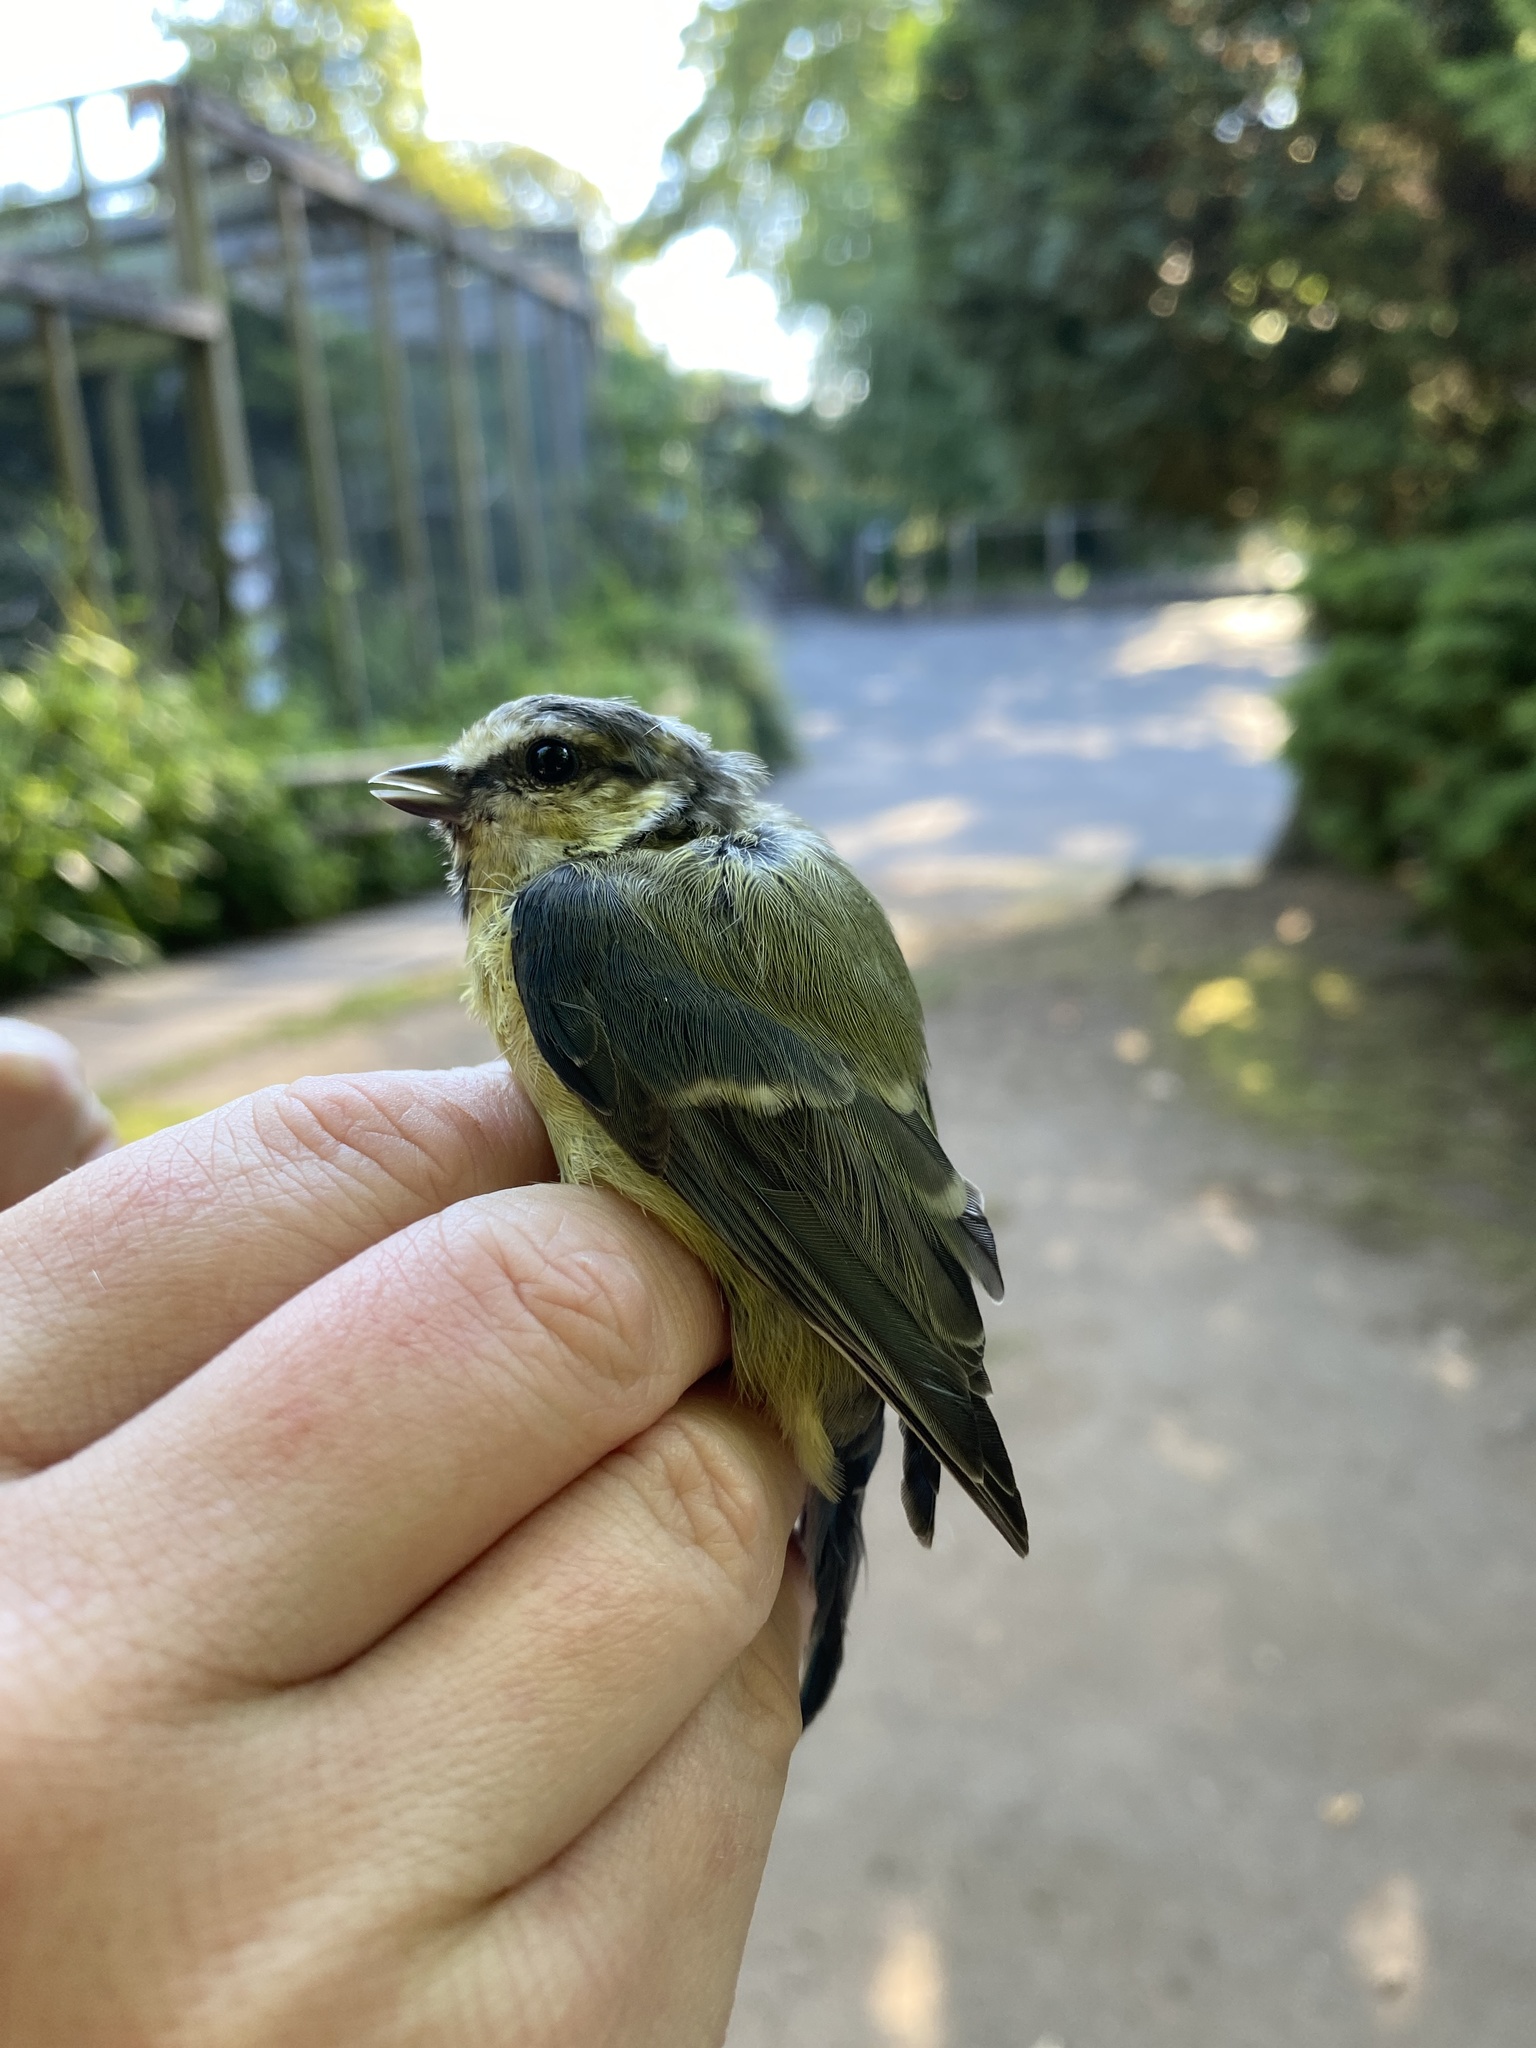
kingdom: Animalia
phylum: Chordata
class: Aves
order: Passeriformes
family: Paridae
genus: Cyanistes
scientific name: Cyanistes caeruleus
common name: Eurasian blue tit
